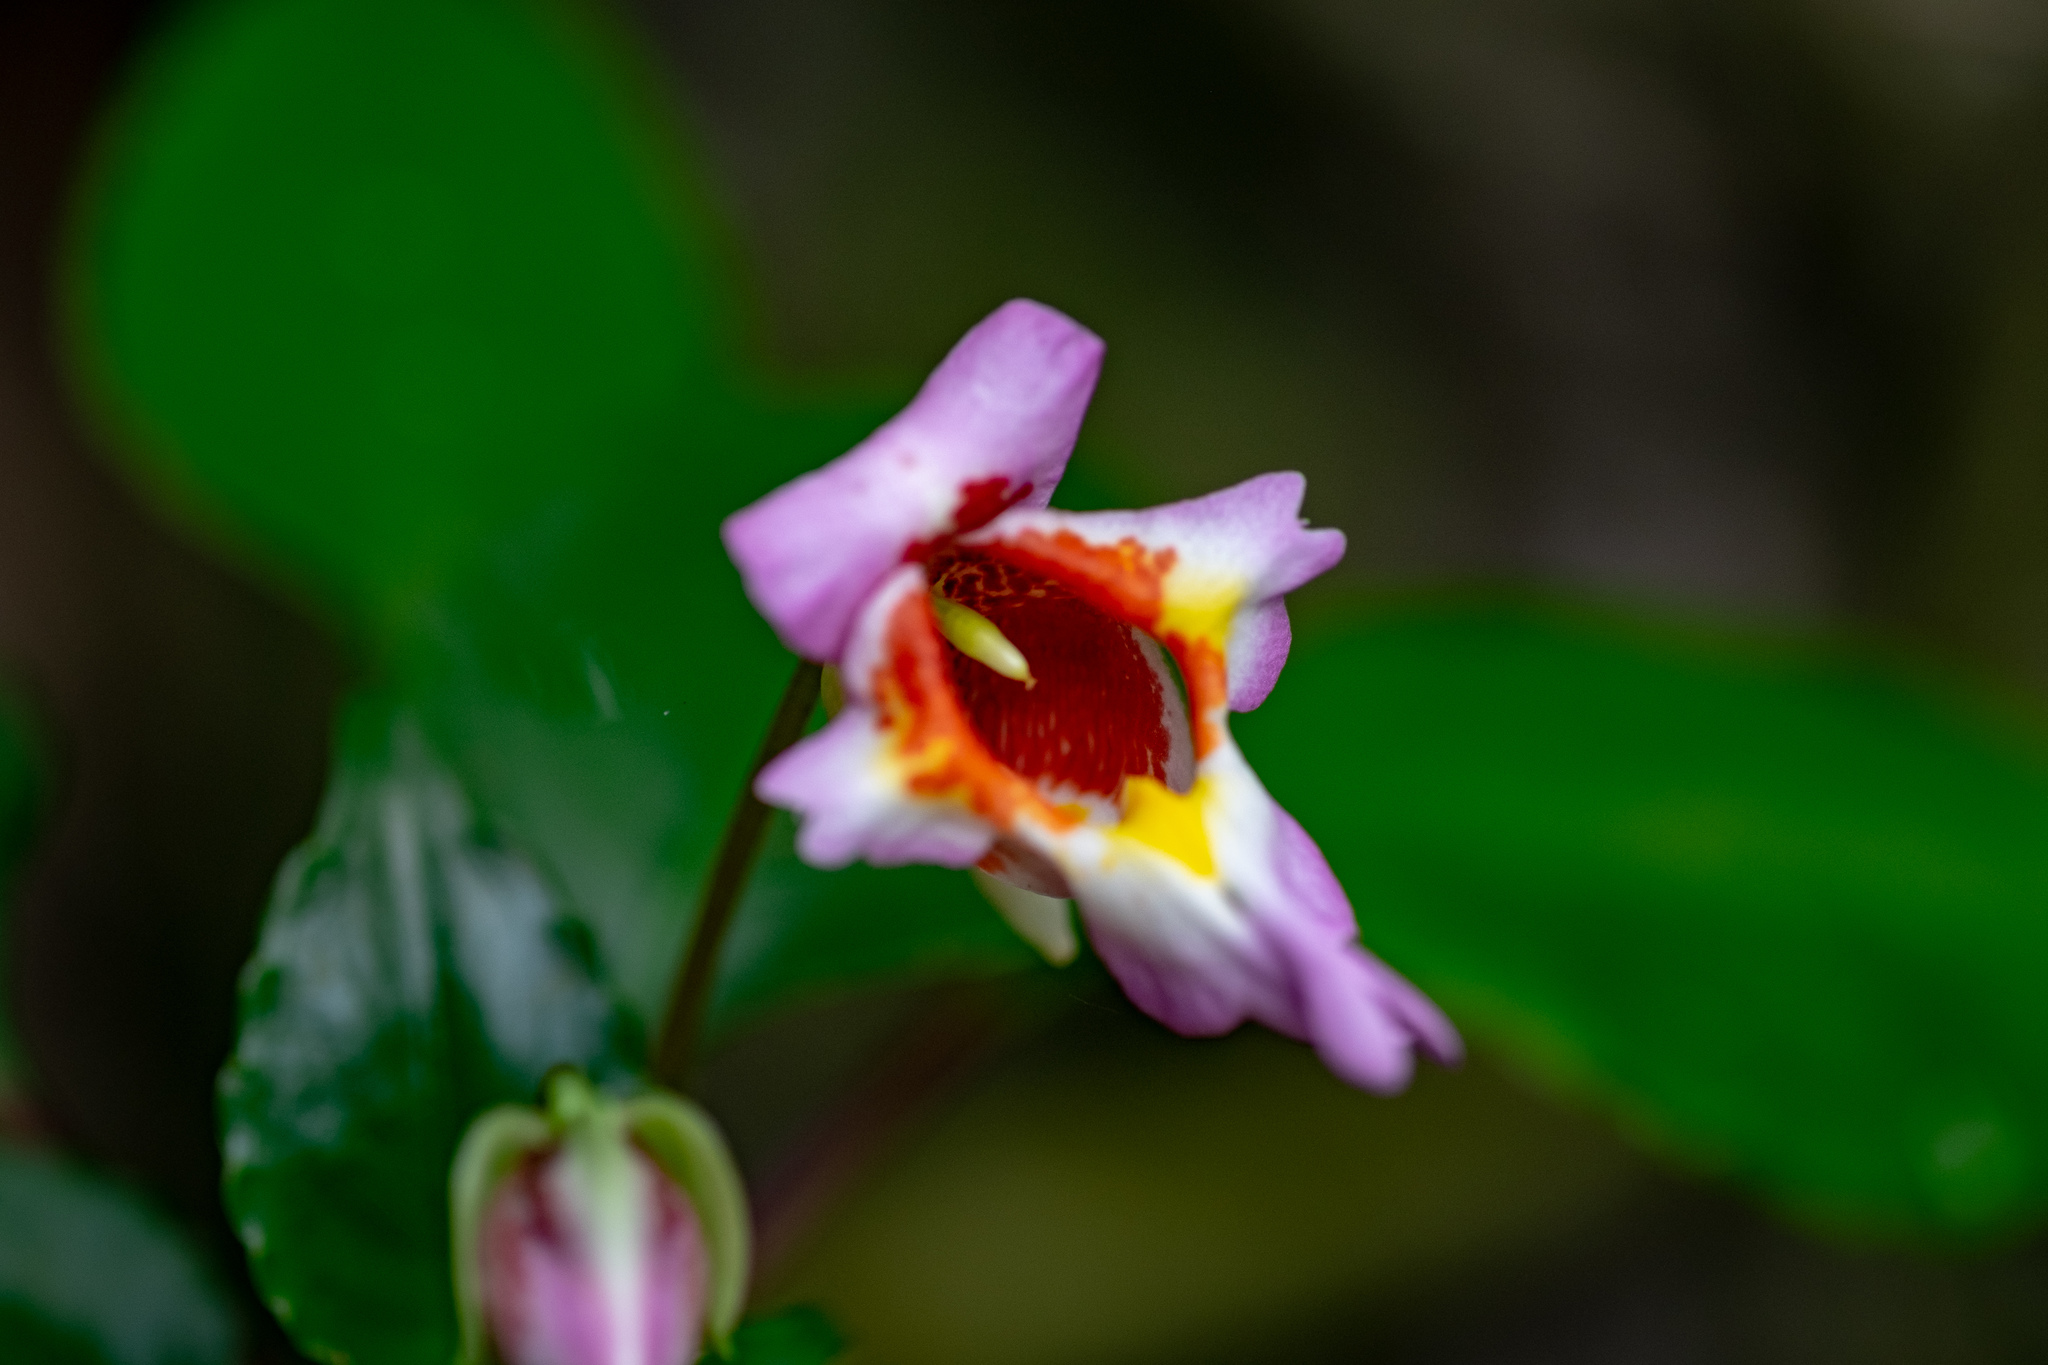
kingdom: Plantae
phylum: Tracheophyta
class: Magnoliopsida
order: Ericales
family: Balsaminaceae
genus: Impatiens
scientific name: Impatiens bonii
